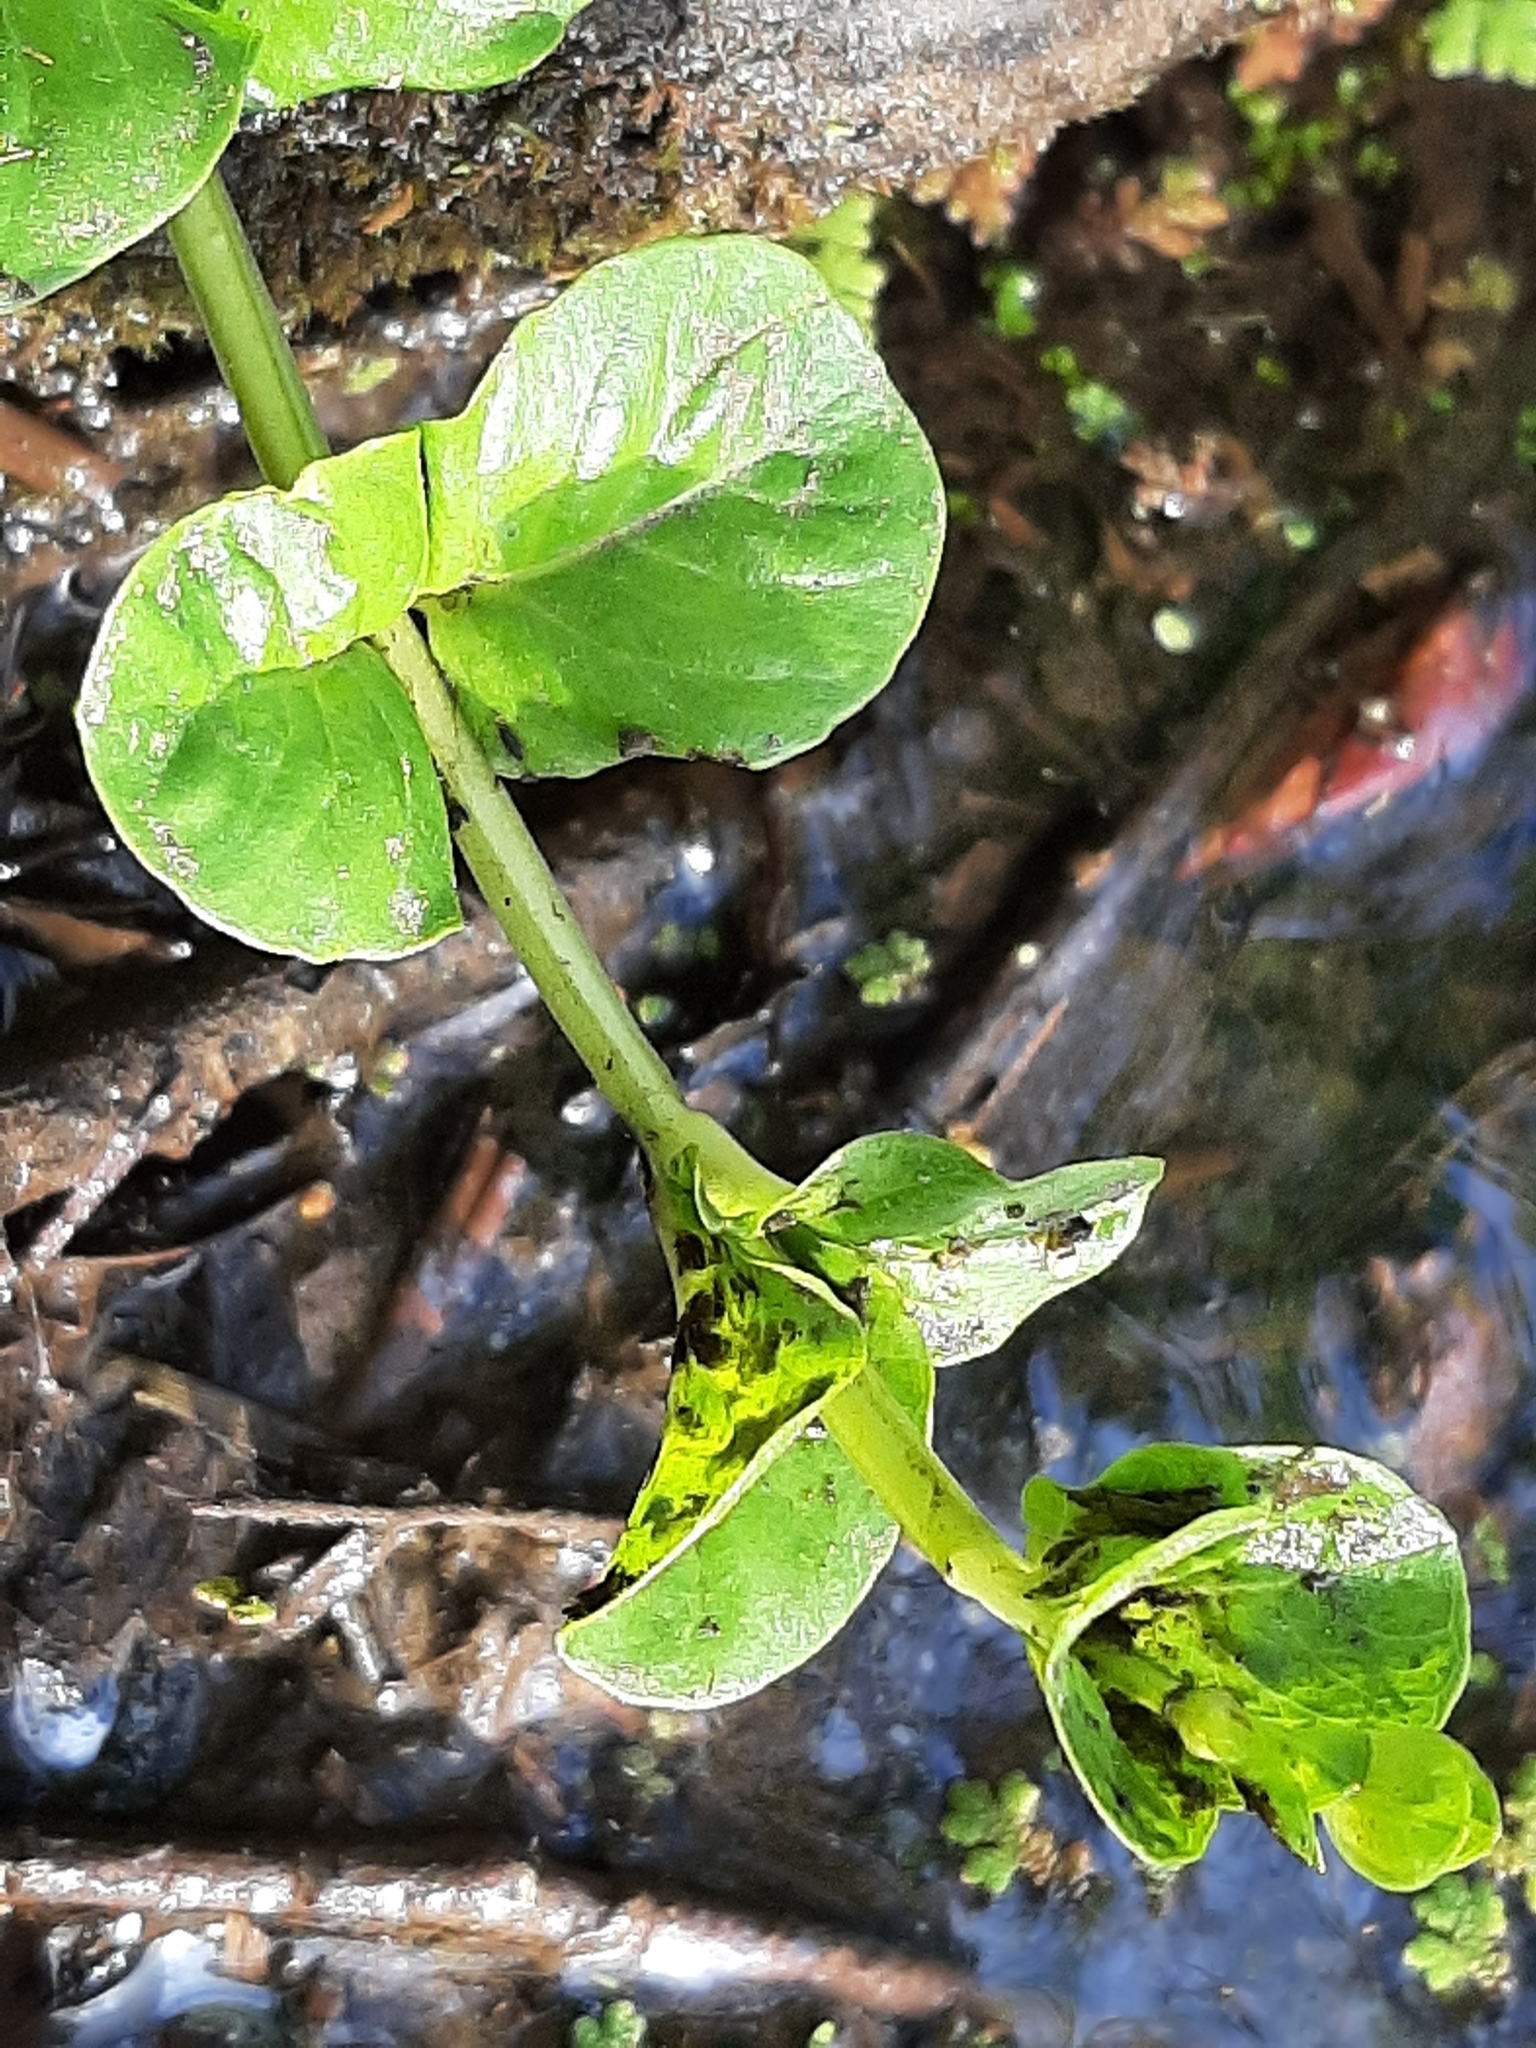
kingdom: Plantae
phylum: Tracheophyta
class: Magnoliopsida
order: Ericales
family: Primulaceae
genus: Lysimachia
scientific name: Lysimachia nummularia
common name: Moneywort
